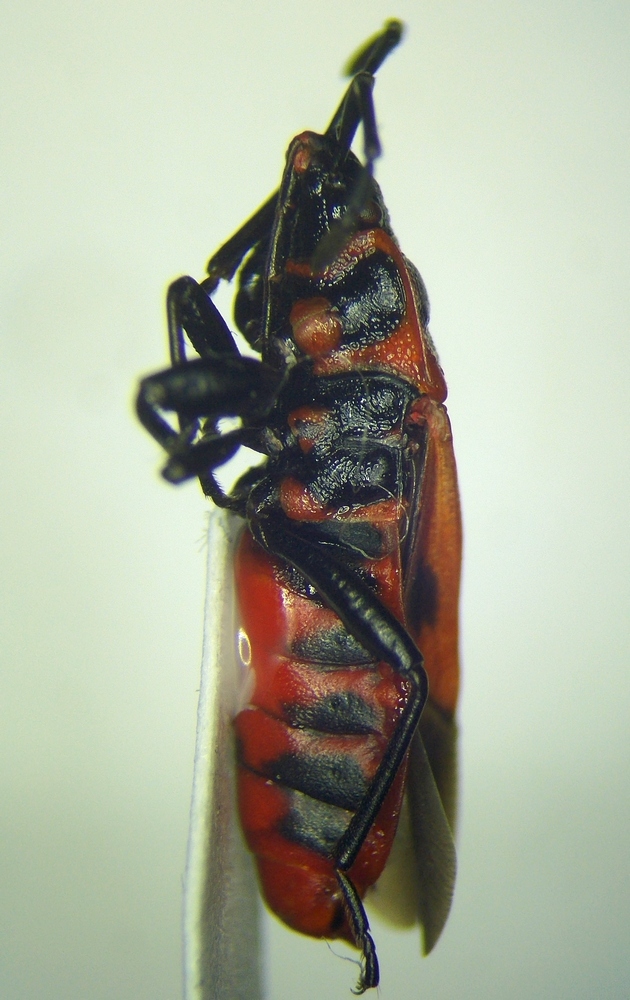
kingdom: Animalia
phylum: Arthropoda
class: Insecta
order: Hemiptera
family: Pyrrhocoridae
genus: Scantius
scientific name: Scantius aegyptius
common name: Red bug
